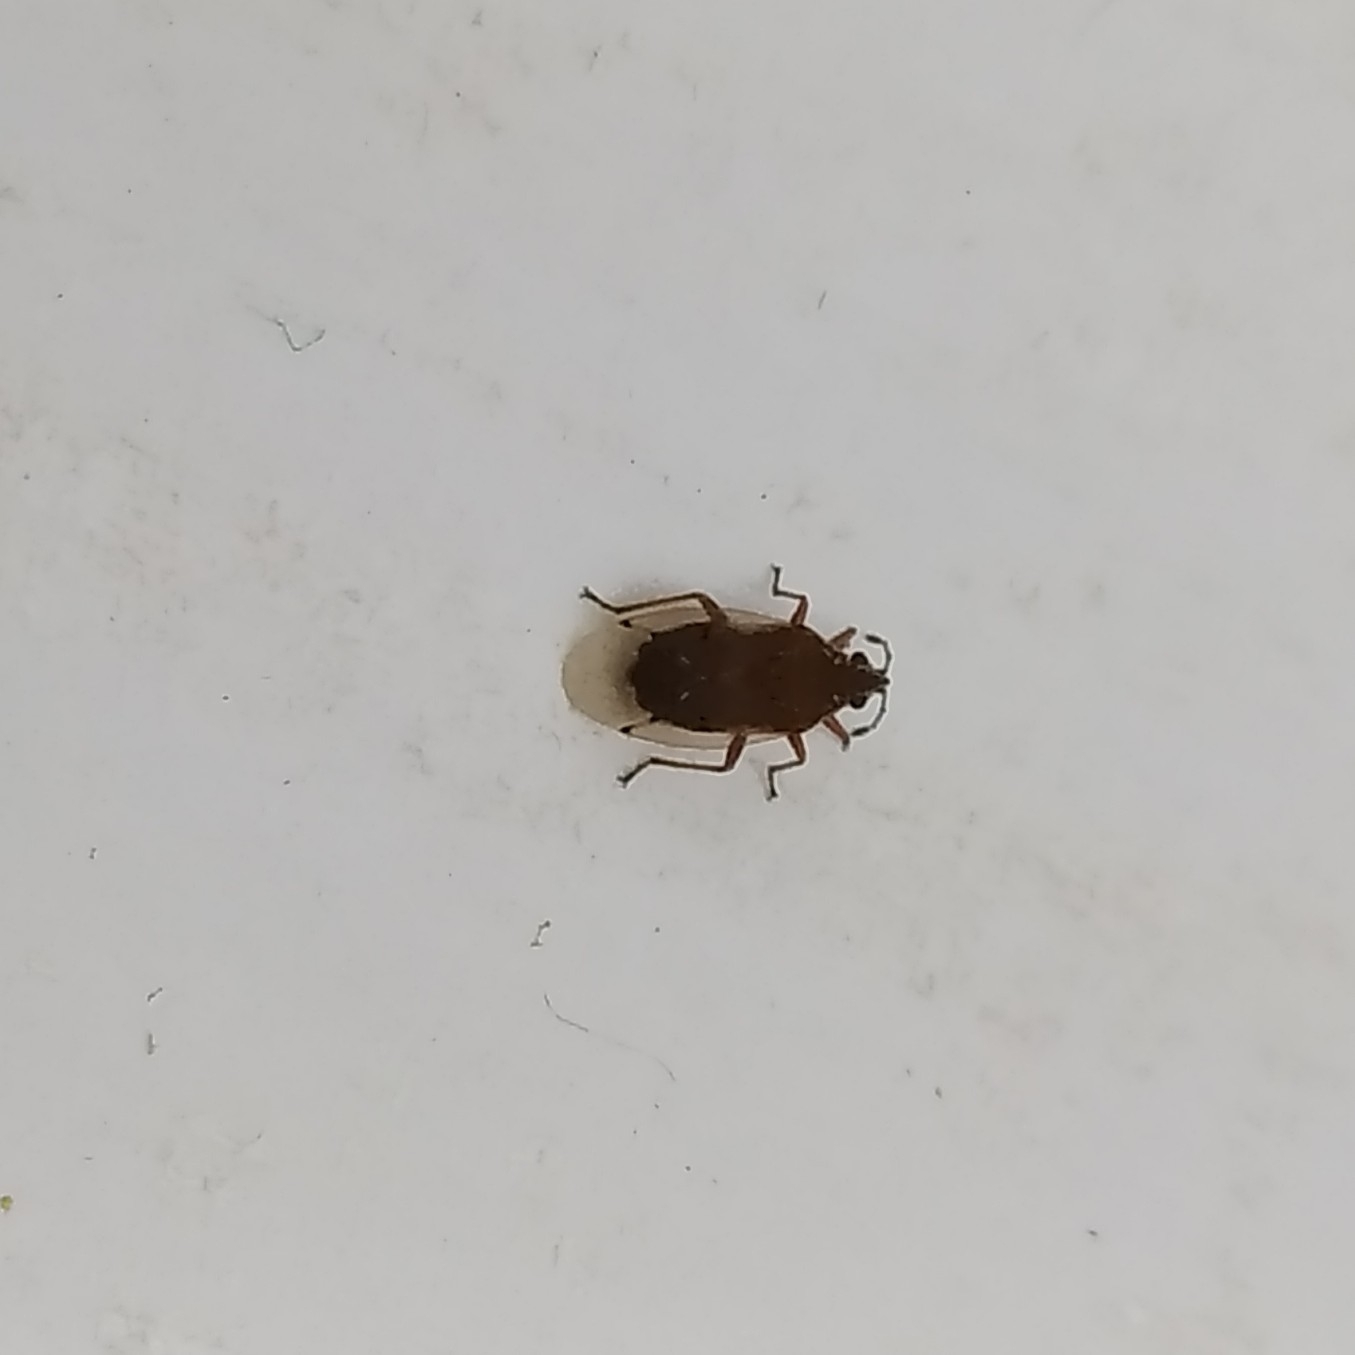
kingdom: Animalia
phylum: Arthropoda
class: Insecta
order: Hemiptera
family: Lygaeidae
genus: Kleidocerys
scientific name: Kleidocerys resedae
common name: Birch catkin bug
